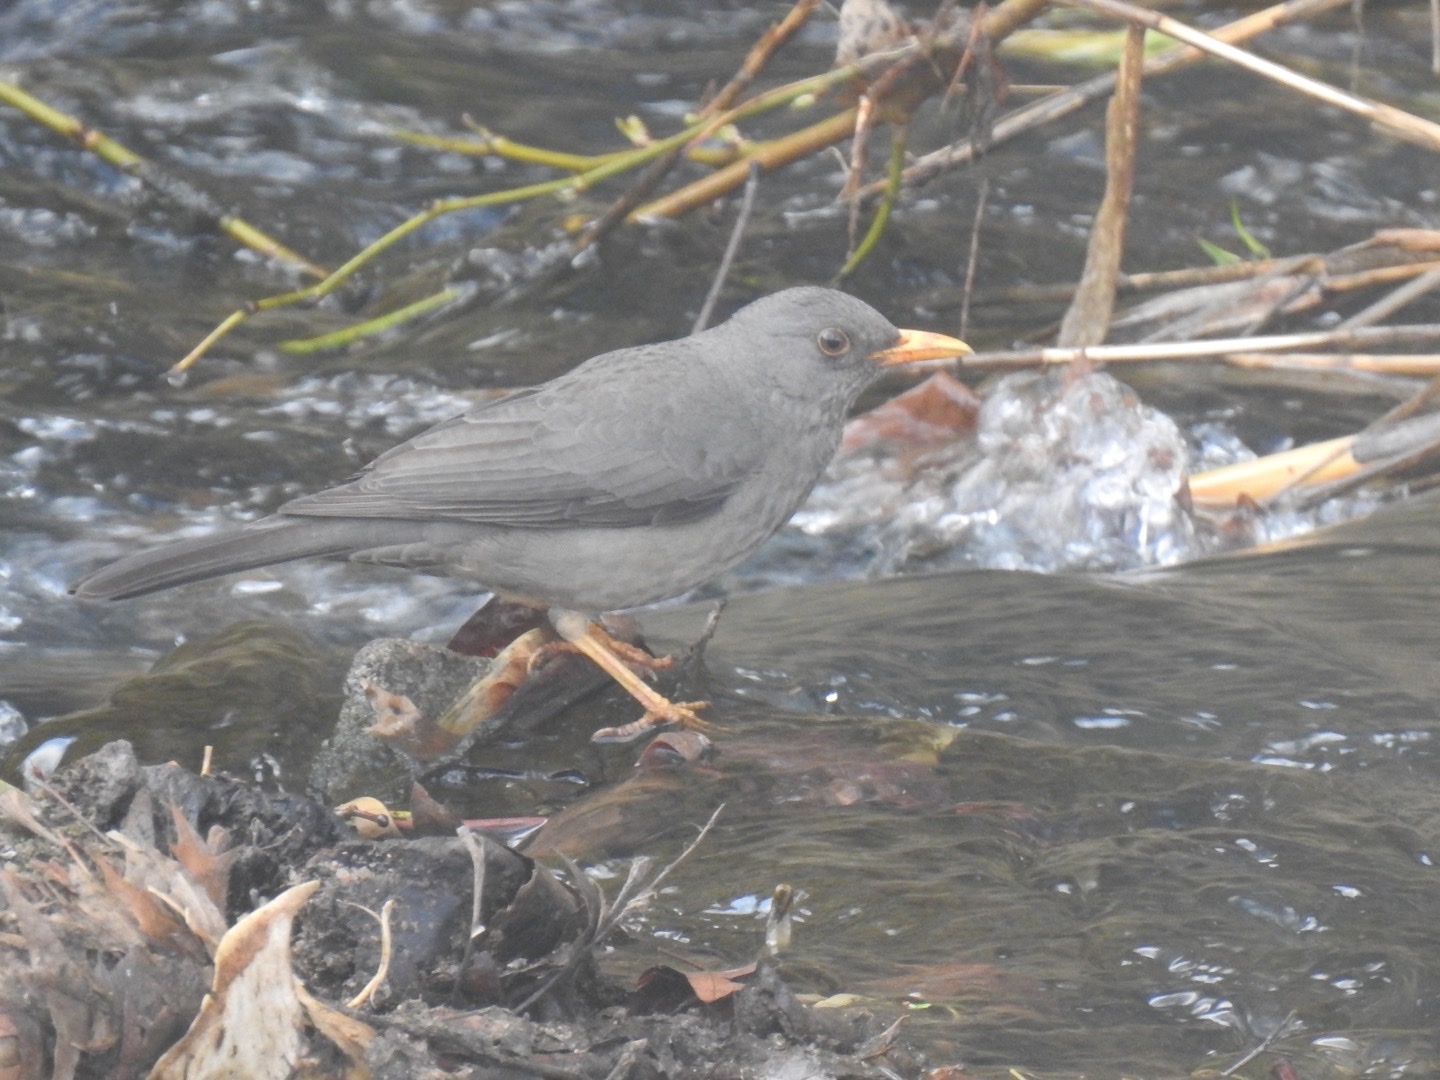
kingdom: Animalia
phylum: Chordata
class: Aves
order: Passeriformes
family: Turdidae
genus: Turdus
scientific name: Turdus smithi
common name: Karoo thrush
